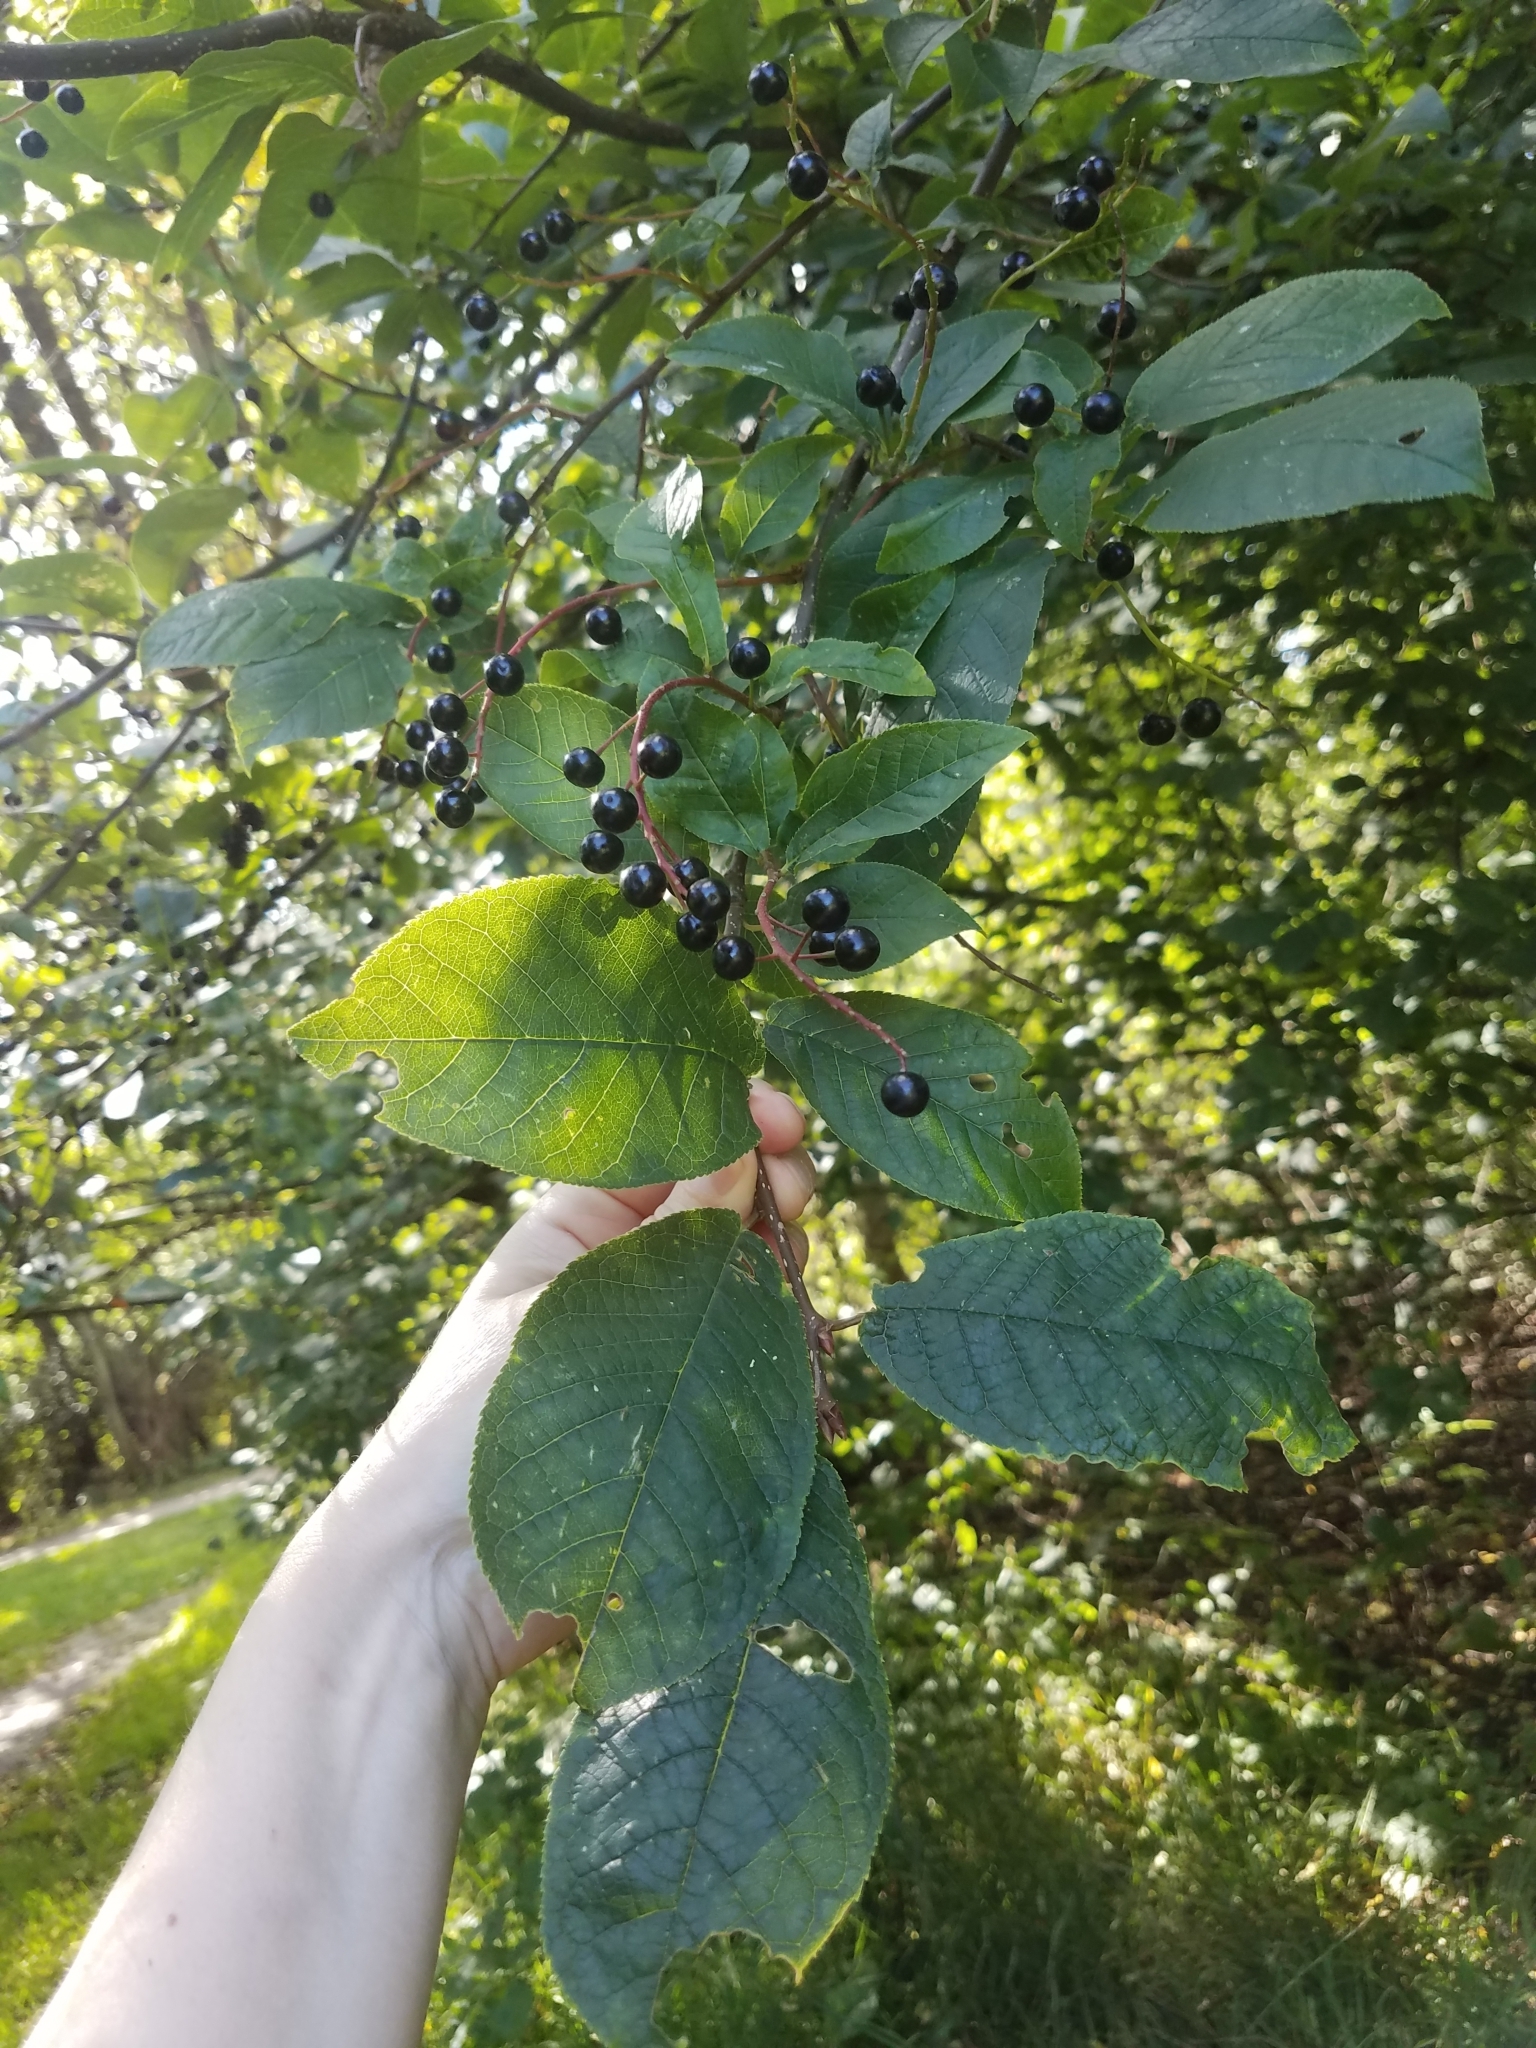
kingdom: Plantae
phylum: Tracheophyta
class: Magnoliopsida
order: Rosales
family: Rosaceae
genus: Prunus
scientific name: Prunus padus
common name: Bird cherry
